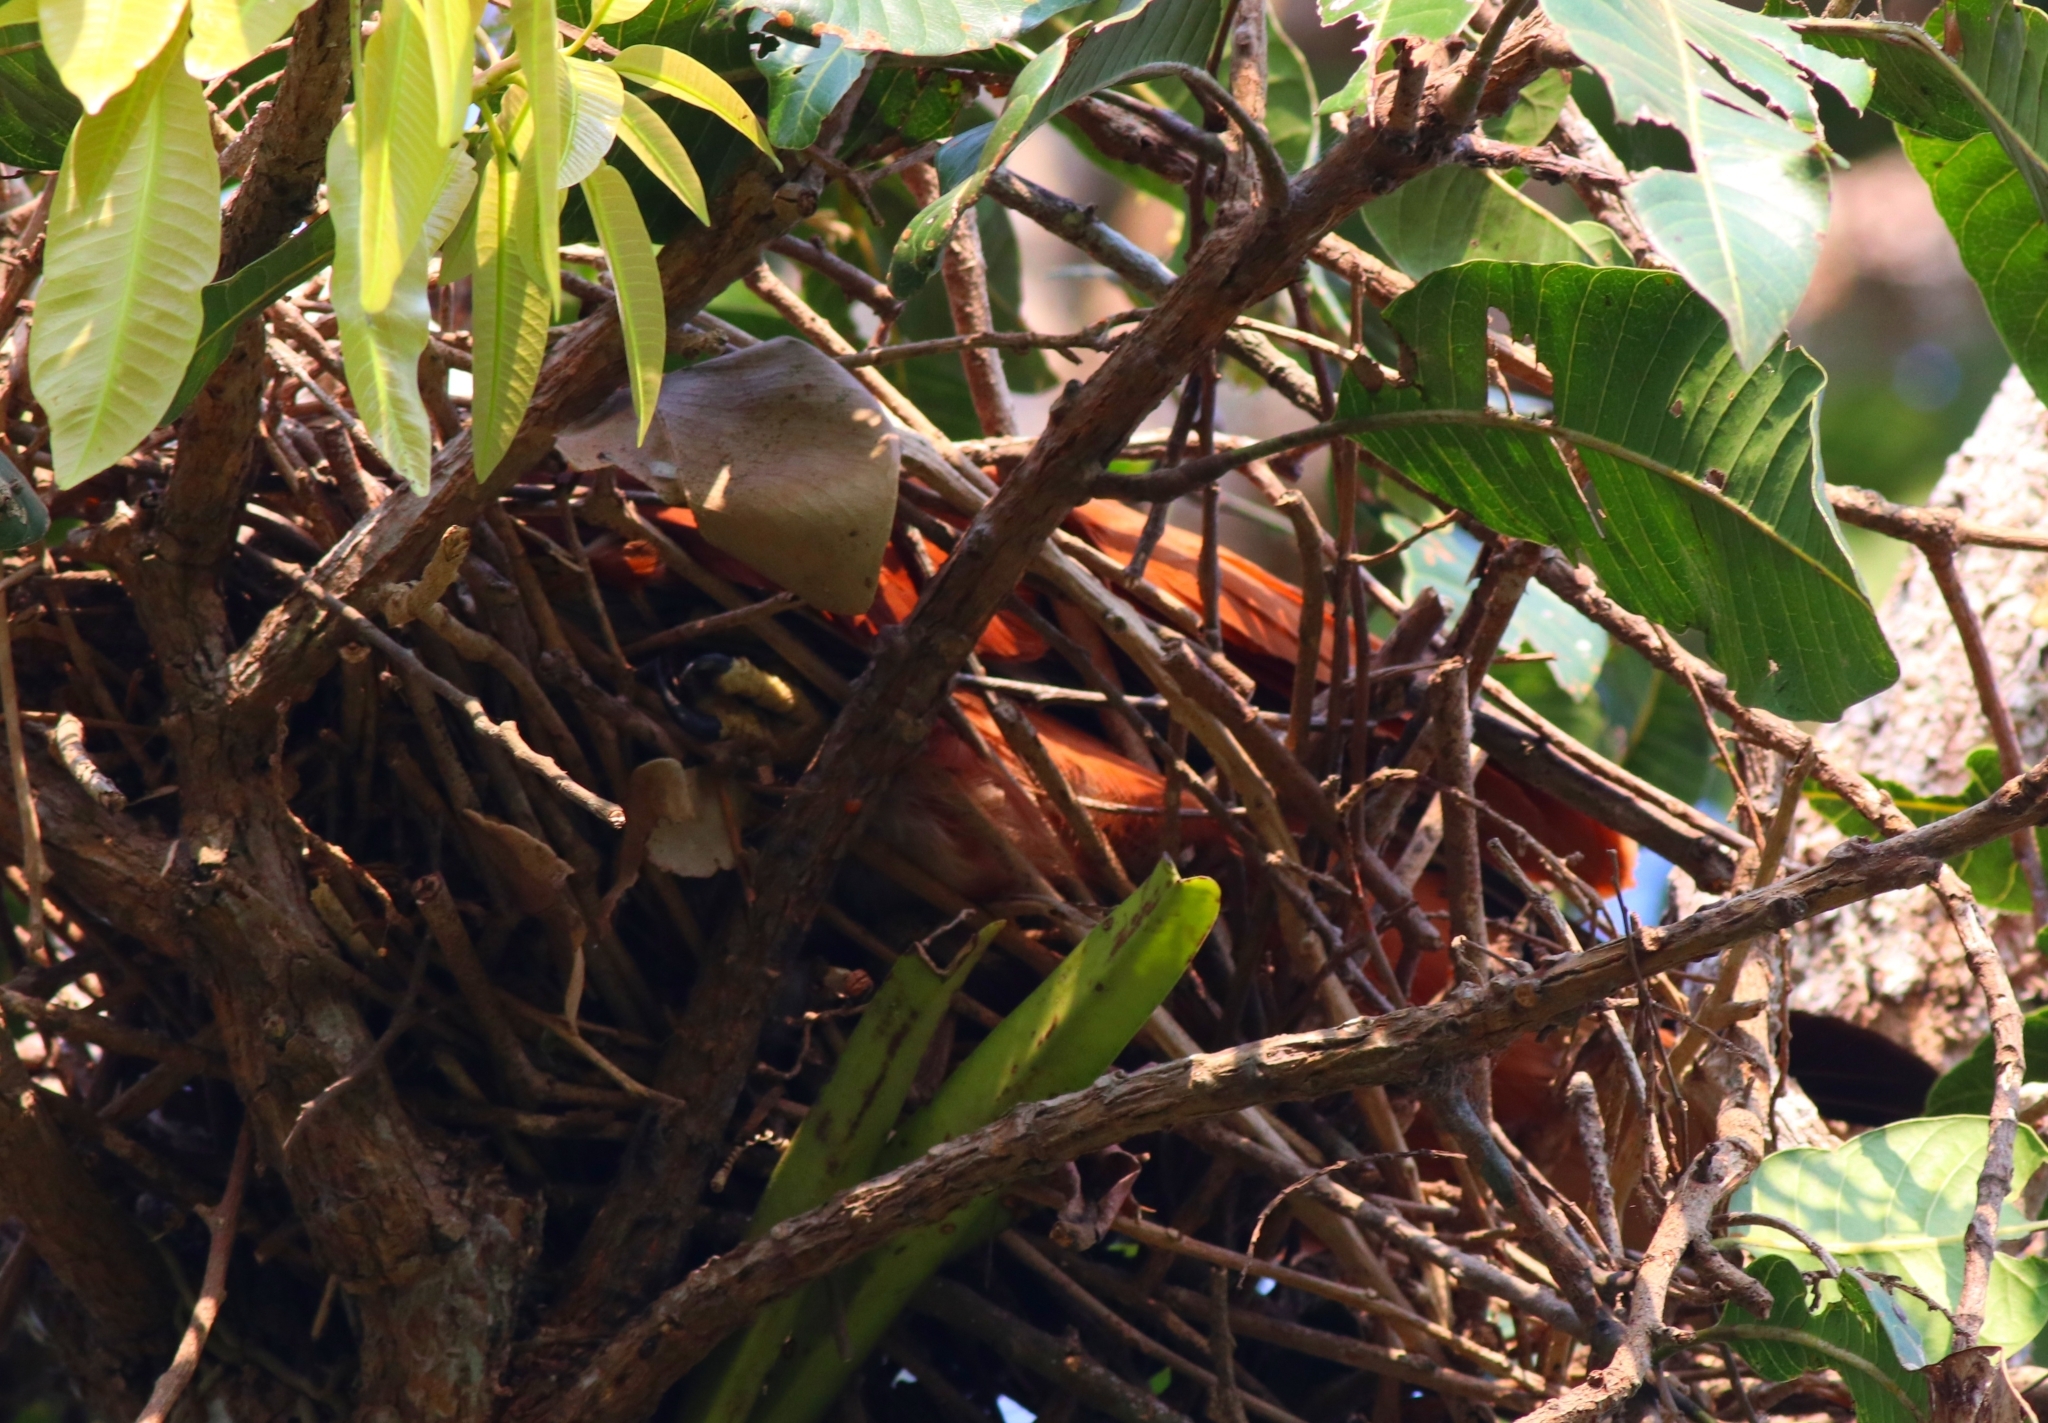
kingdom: Animalia
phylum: Chordata
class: Aves
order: Accipitriformes
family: Accipitridae
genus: Haliastur
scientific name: Haliastur indus
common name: Brahminy kite
